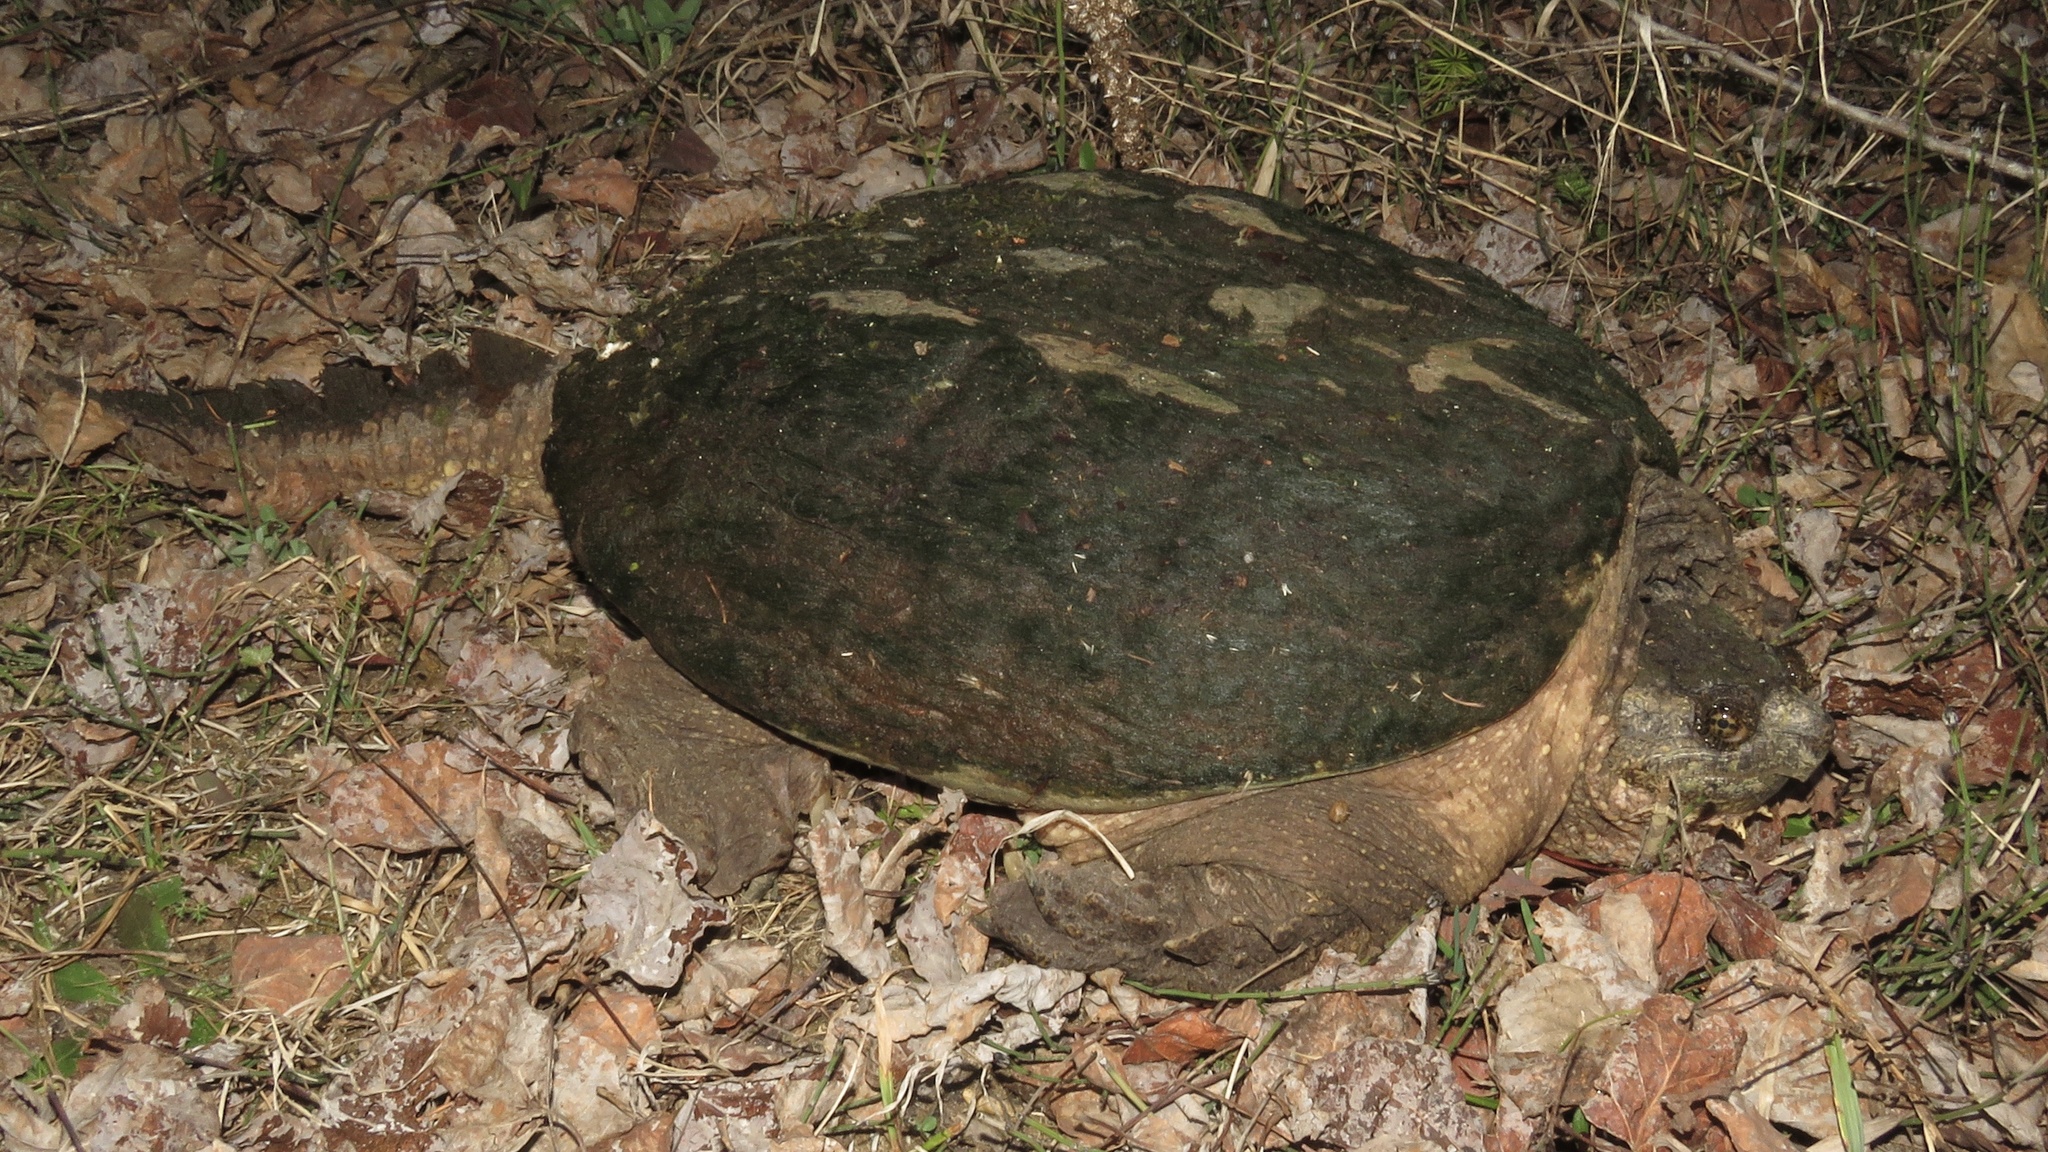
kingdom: Animalia
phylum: Chordata
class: Testudines
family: Chelydridae
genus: Chelydra
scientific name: Chelydra serpentina
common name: Common snapping turtle
